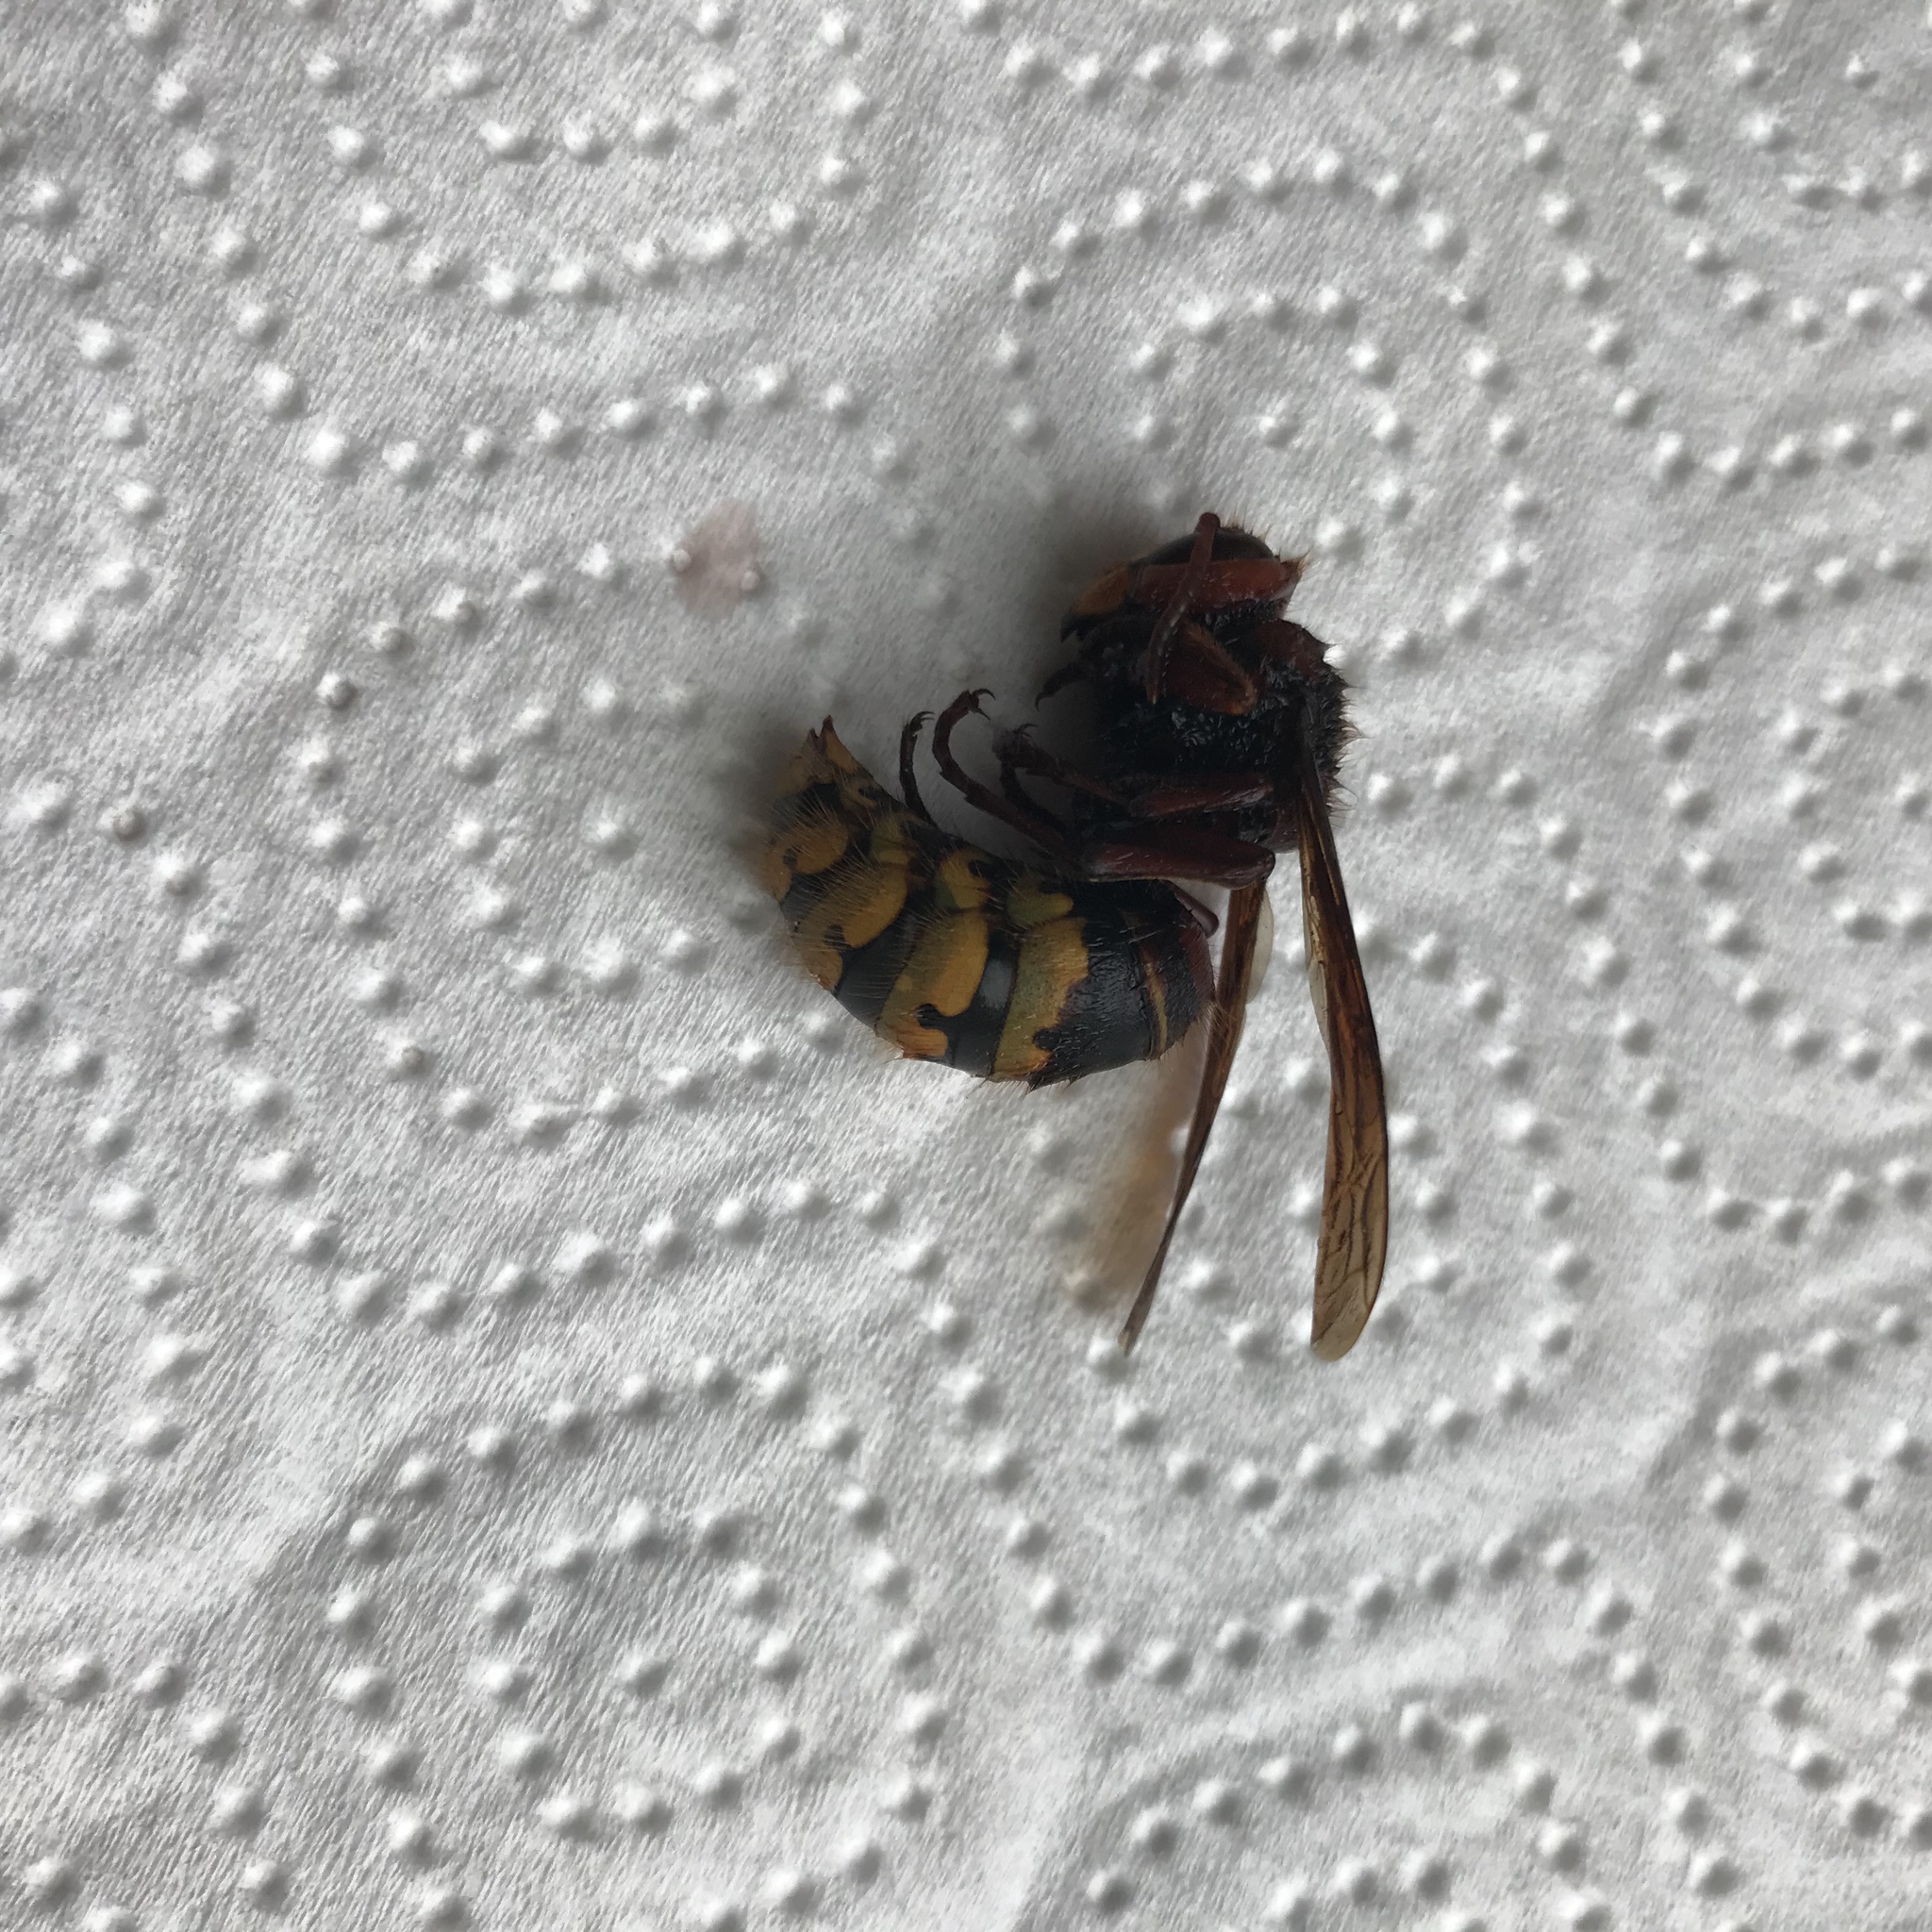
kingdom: Animalia
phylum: Arthropoda
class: Insecta
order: Hymenoptera
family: Vespidae
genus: Vespa
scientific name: Vespa crabro
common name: Hornet
